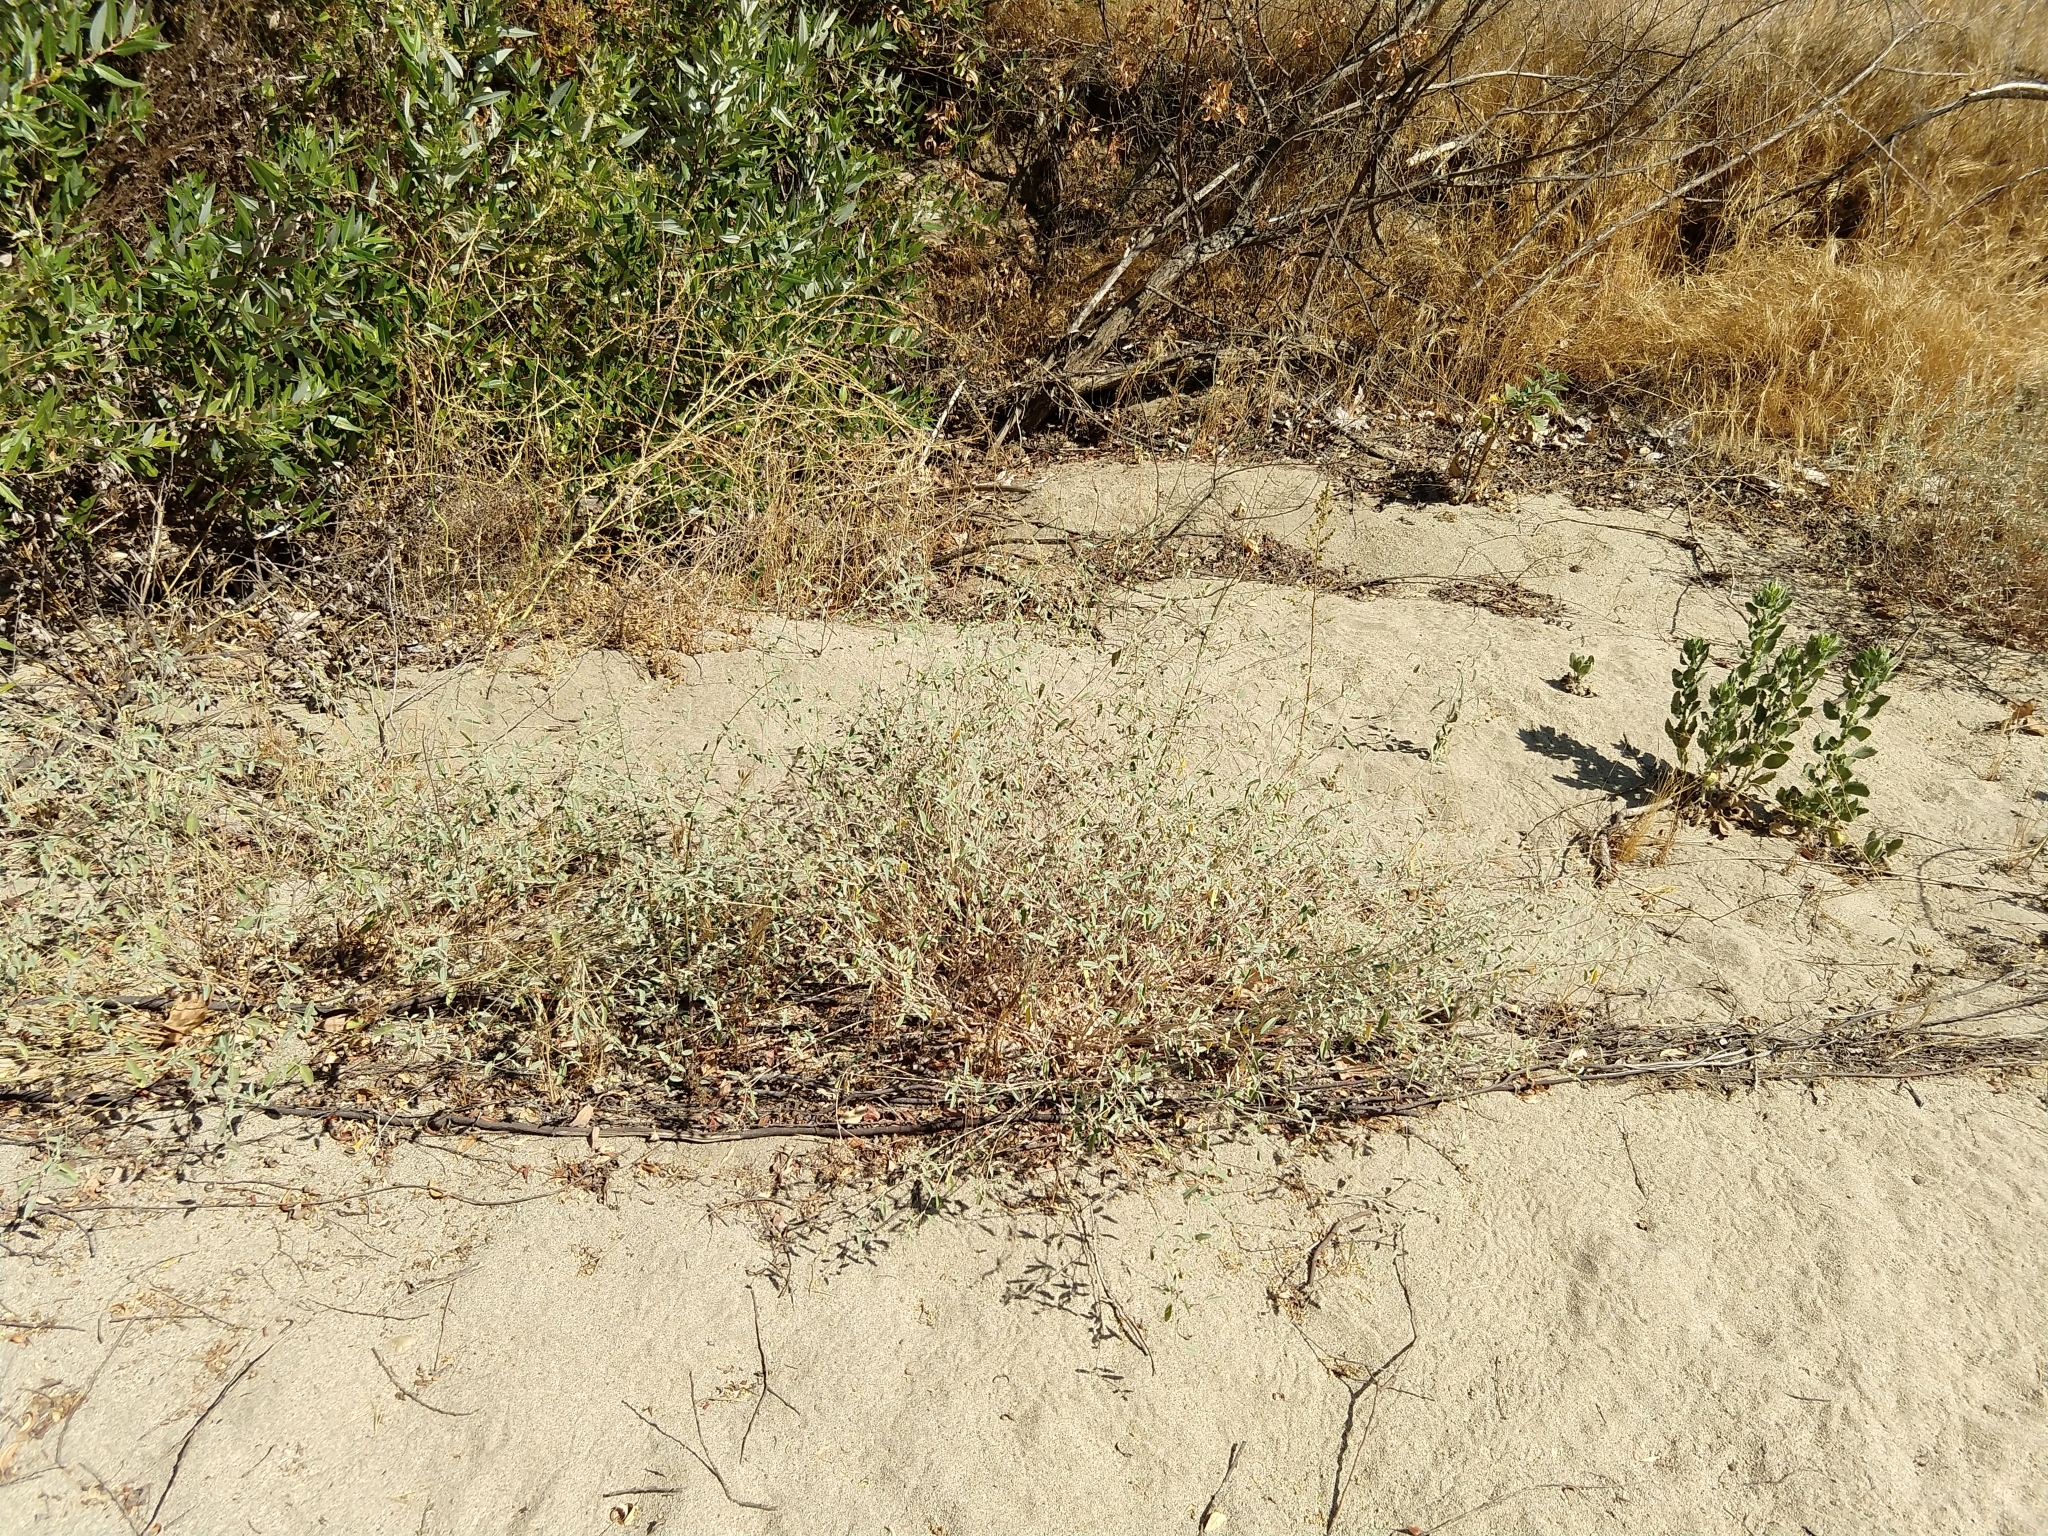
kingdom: Plantae
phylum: Tracheophyta
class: Magnoliopsida
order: Malpighiales
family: Euphorbiaceae
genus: Croton
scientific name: Croton californicus
